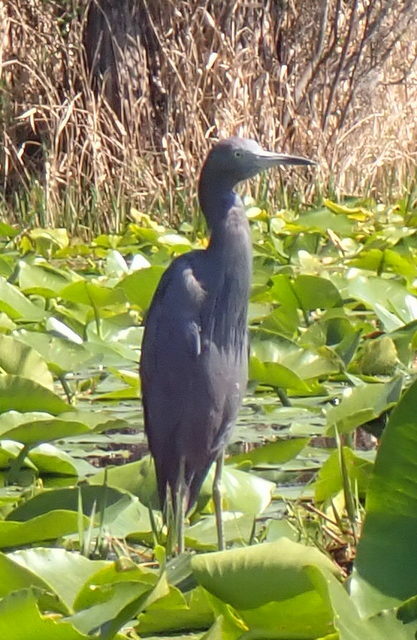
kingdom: Animalia
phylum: Chordata
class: Aves
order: Pelecaniformes
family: Ardeidae
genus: Egretta
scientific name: Egretta caerulea
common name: Little blue heron
